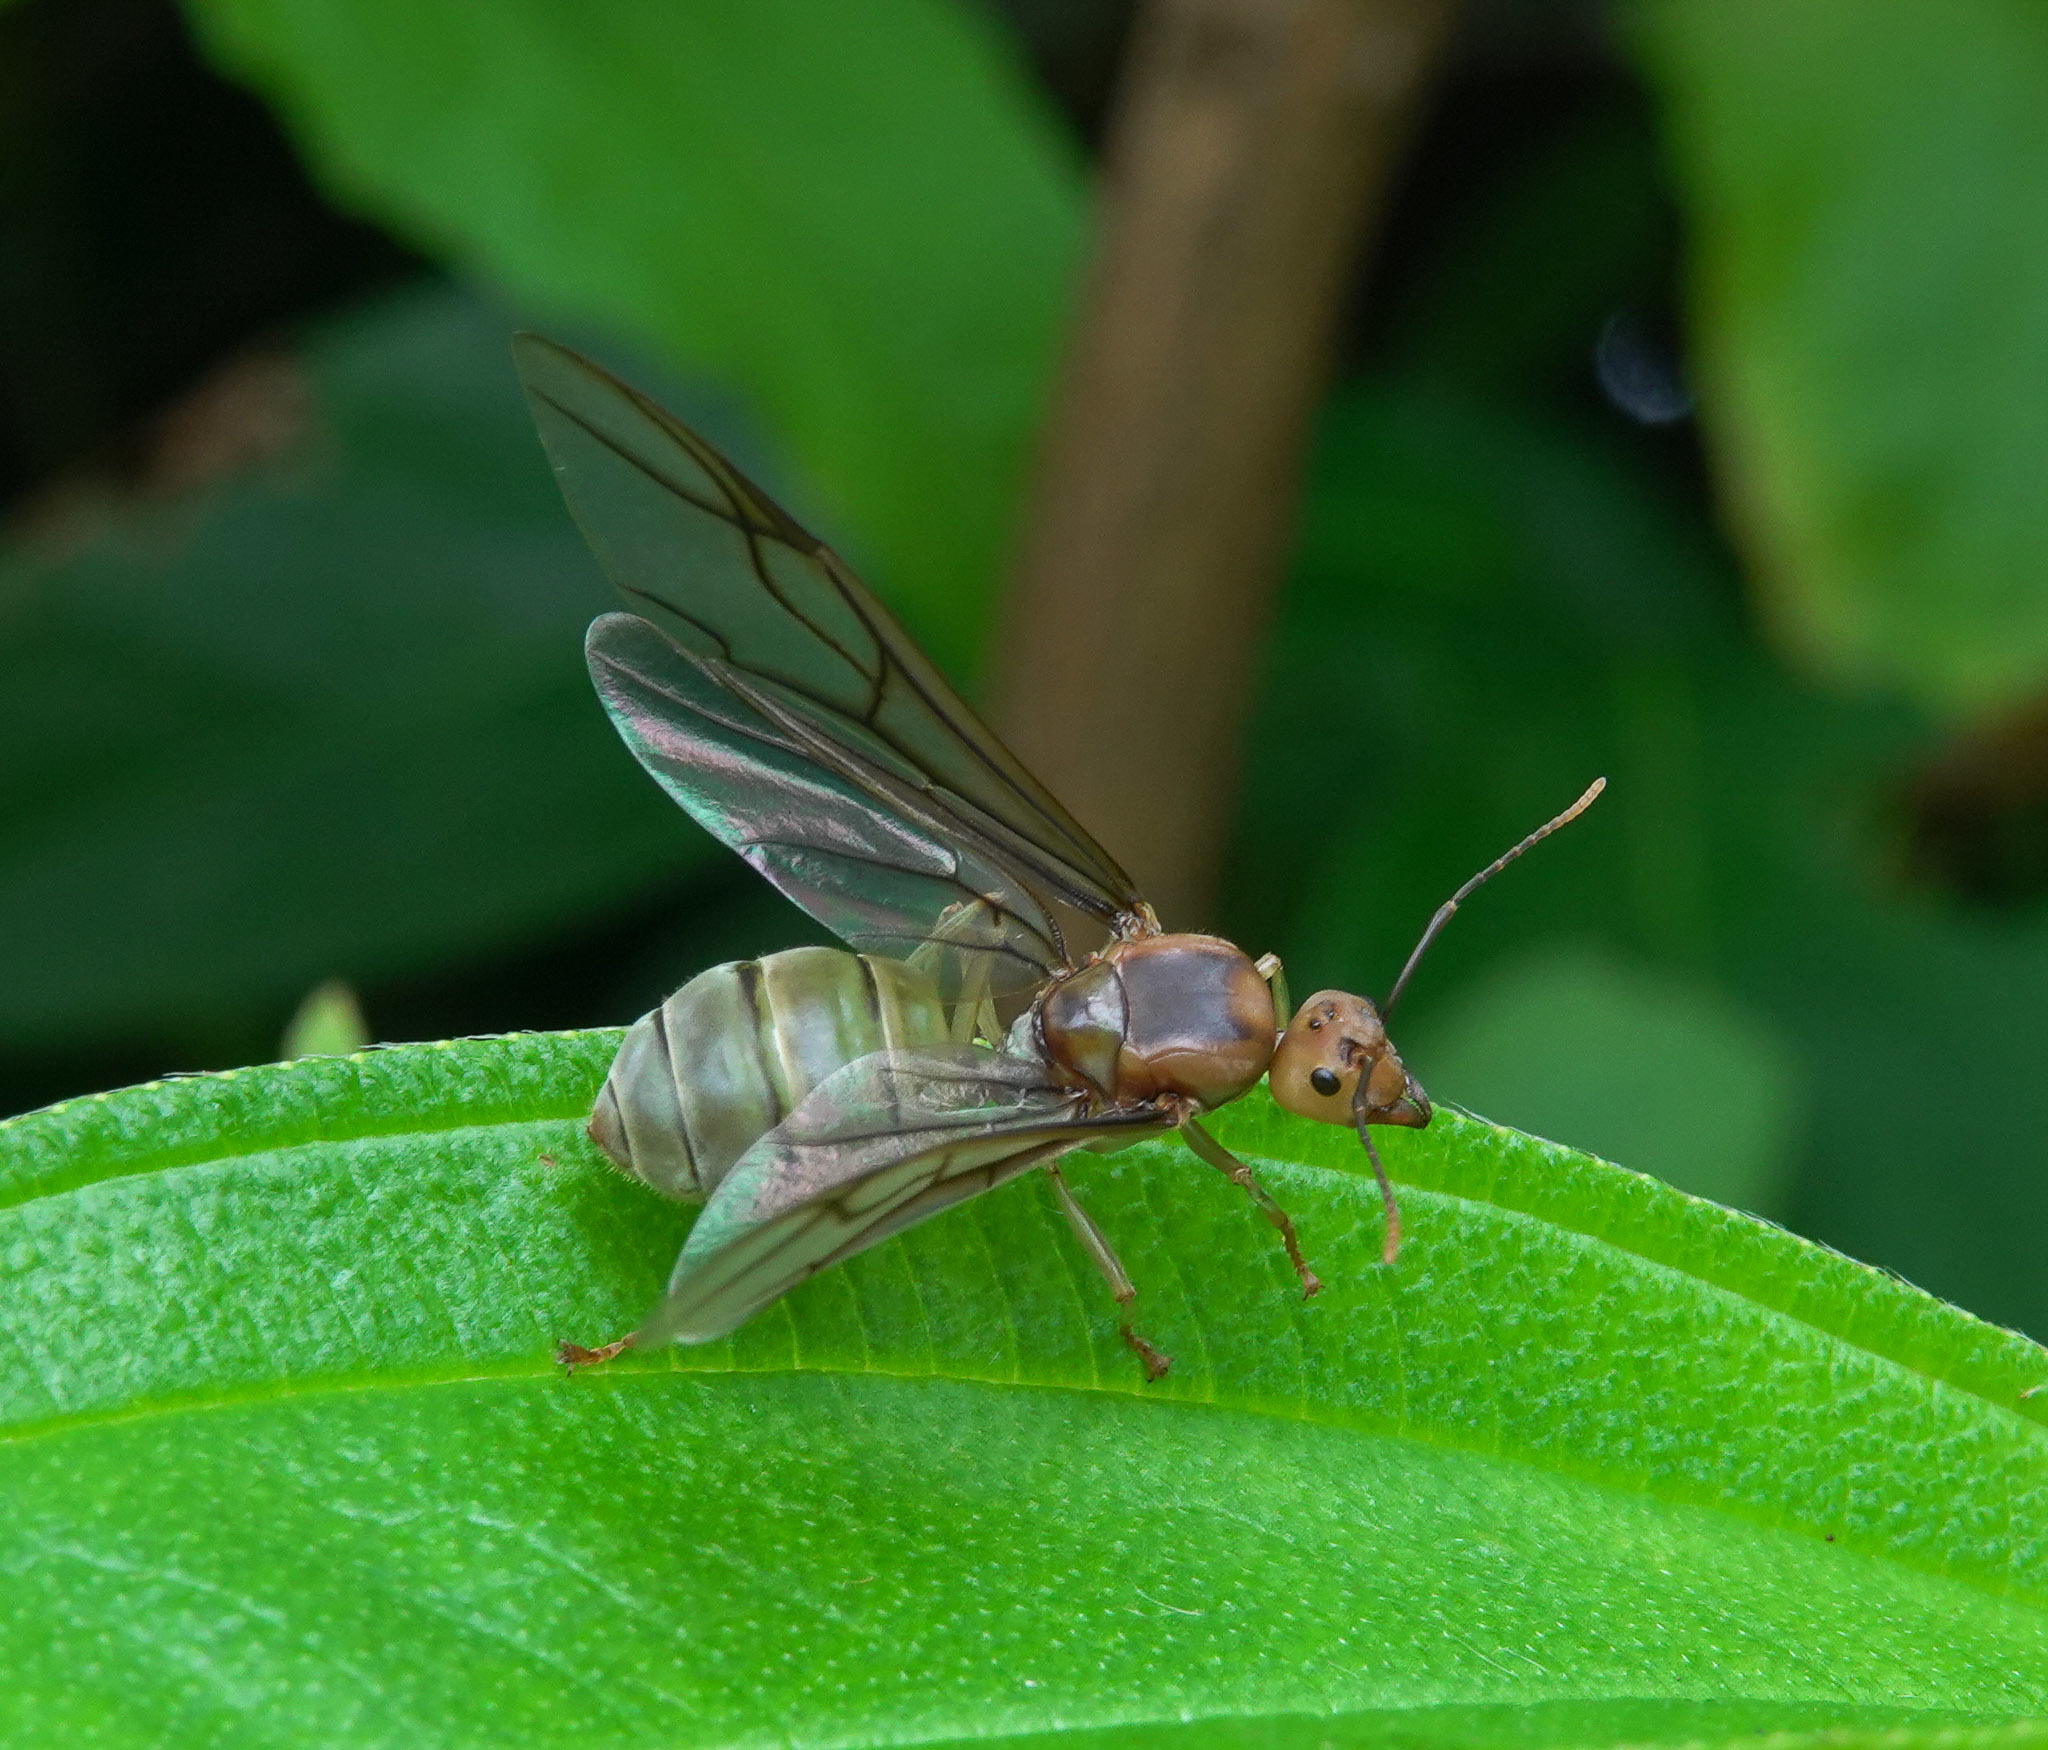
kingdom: Animalia
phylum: Arthropoda
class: Insecta
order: Hymenoptera
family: Formicidae
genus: Oecophylla
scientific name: Oecophylla smaragdina
